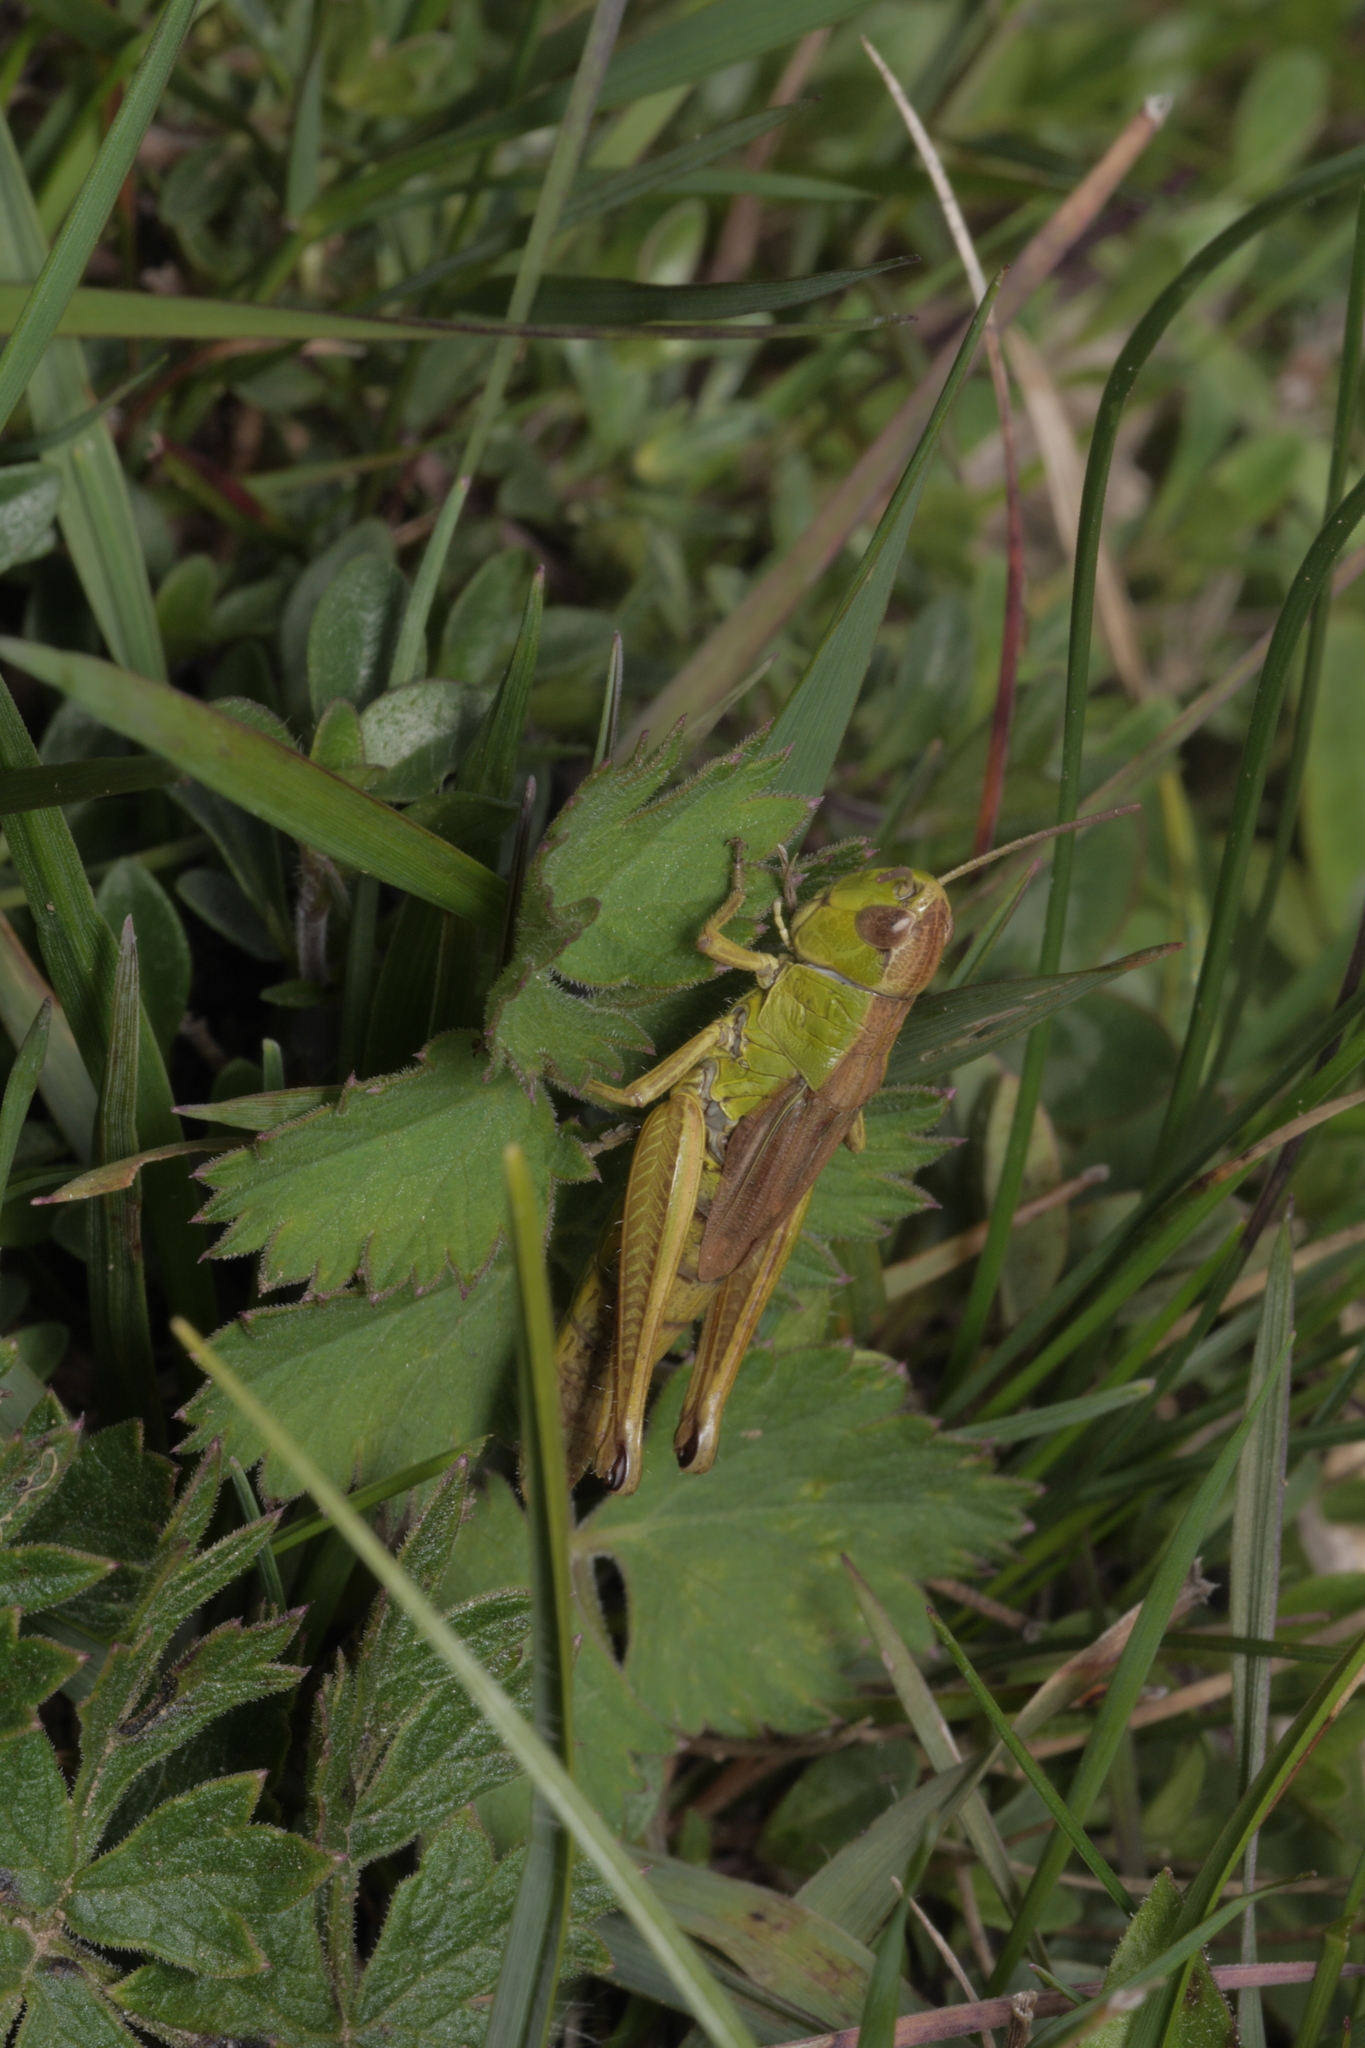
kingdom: Animalia
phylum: Arthropoda
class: Insecta
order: Orthoptera
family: Acrididae
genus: Pseudochorthippus
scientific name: Pseudochorthippus parallelus
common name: Meadow grasshopper
